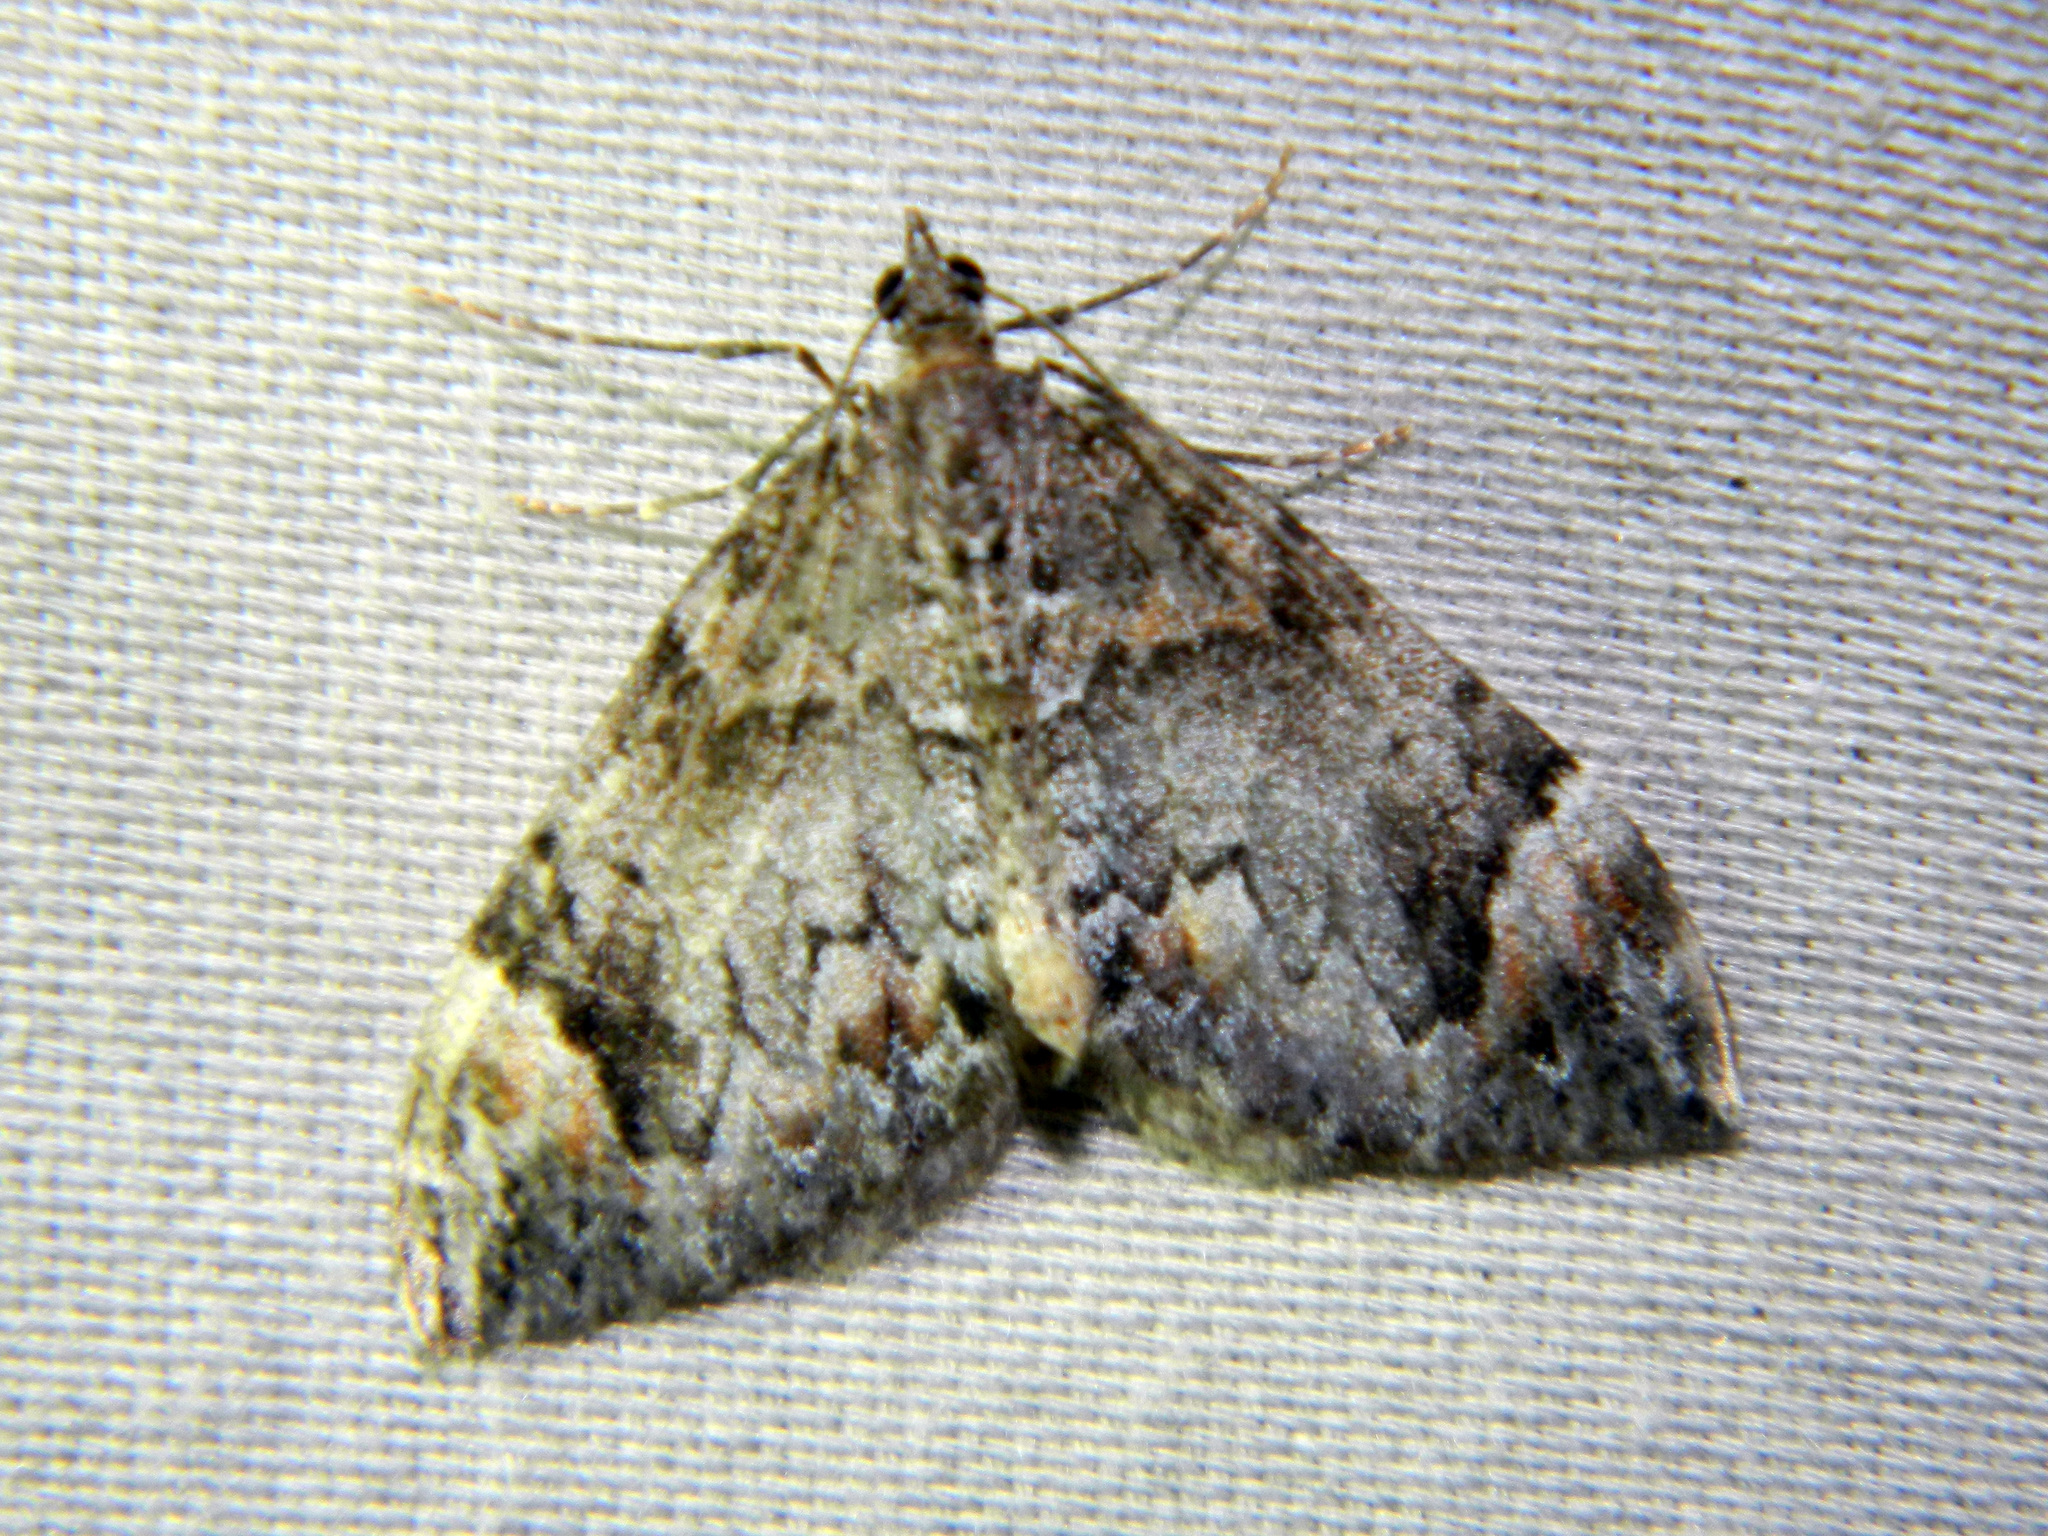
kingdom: Animalia
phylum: Arthropoda
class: Insecta
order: Lepidoptera
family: Geometridae
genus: Dysstroma
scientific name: Dysstroma citrata
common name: Dark marbled carpet
